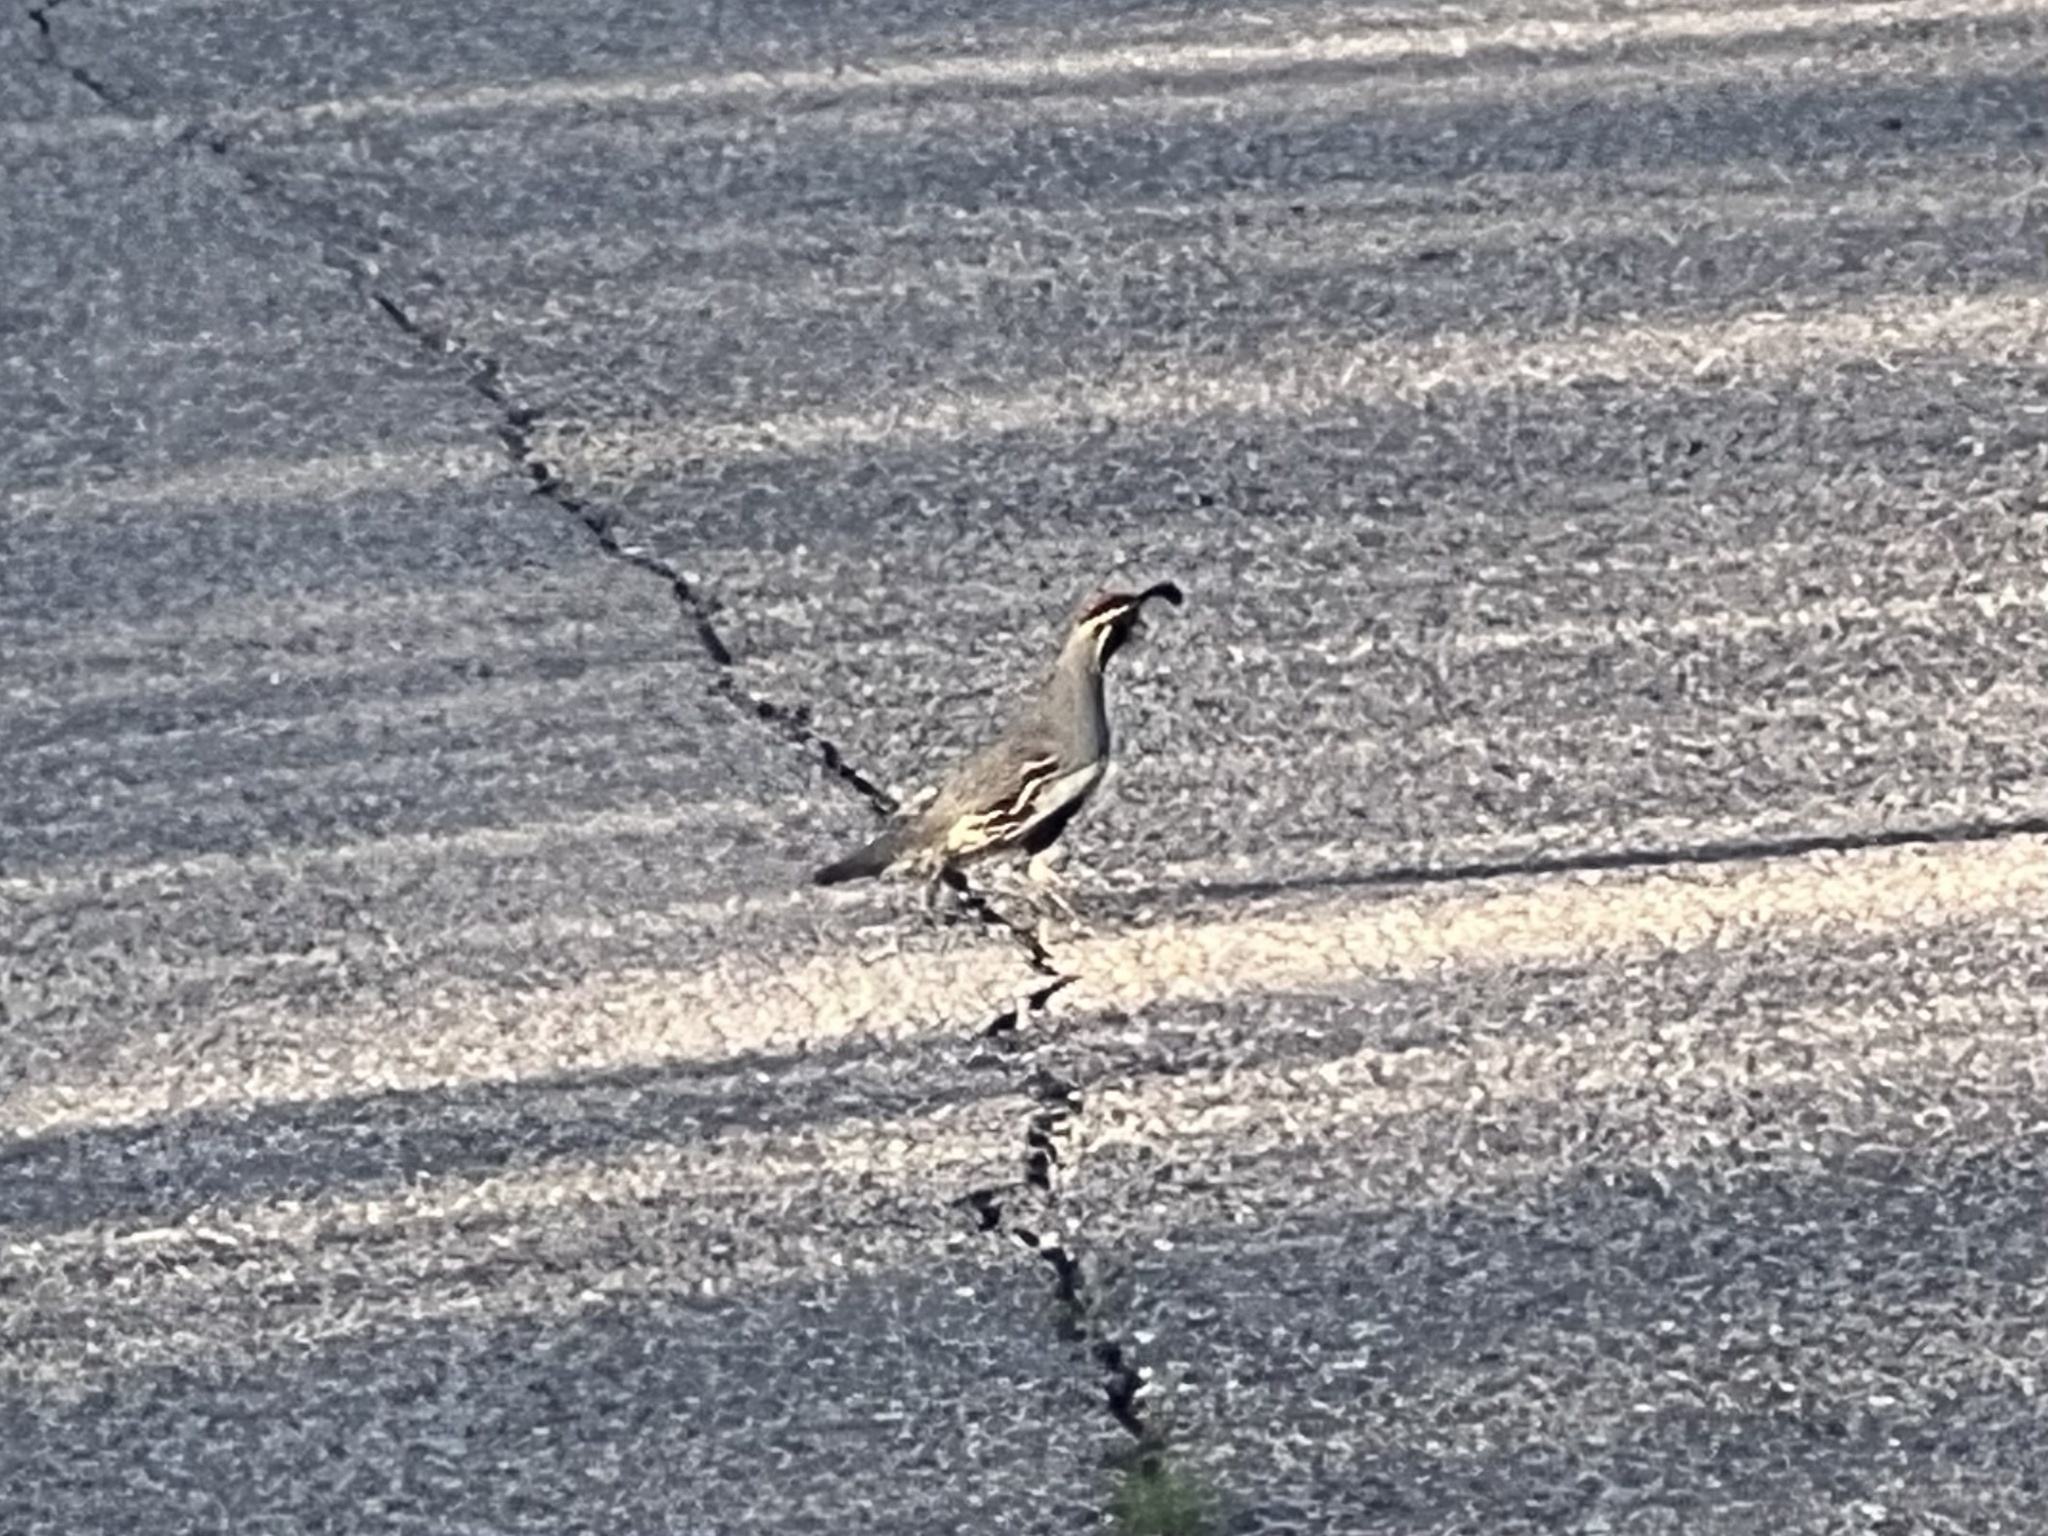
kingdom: Animalia
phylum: Chordata
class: Aves
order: Galliformes
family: Odontophoridae
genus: Callipepla
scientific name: Callipepla gambelii
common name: Gambel's quail
